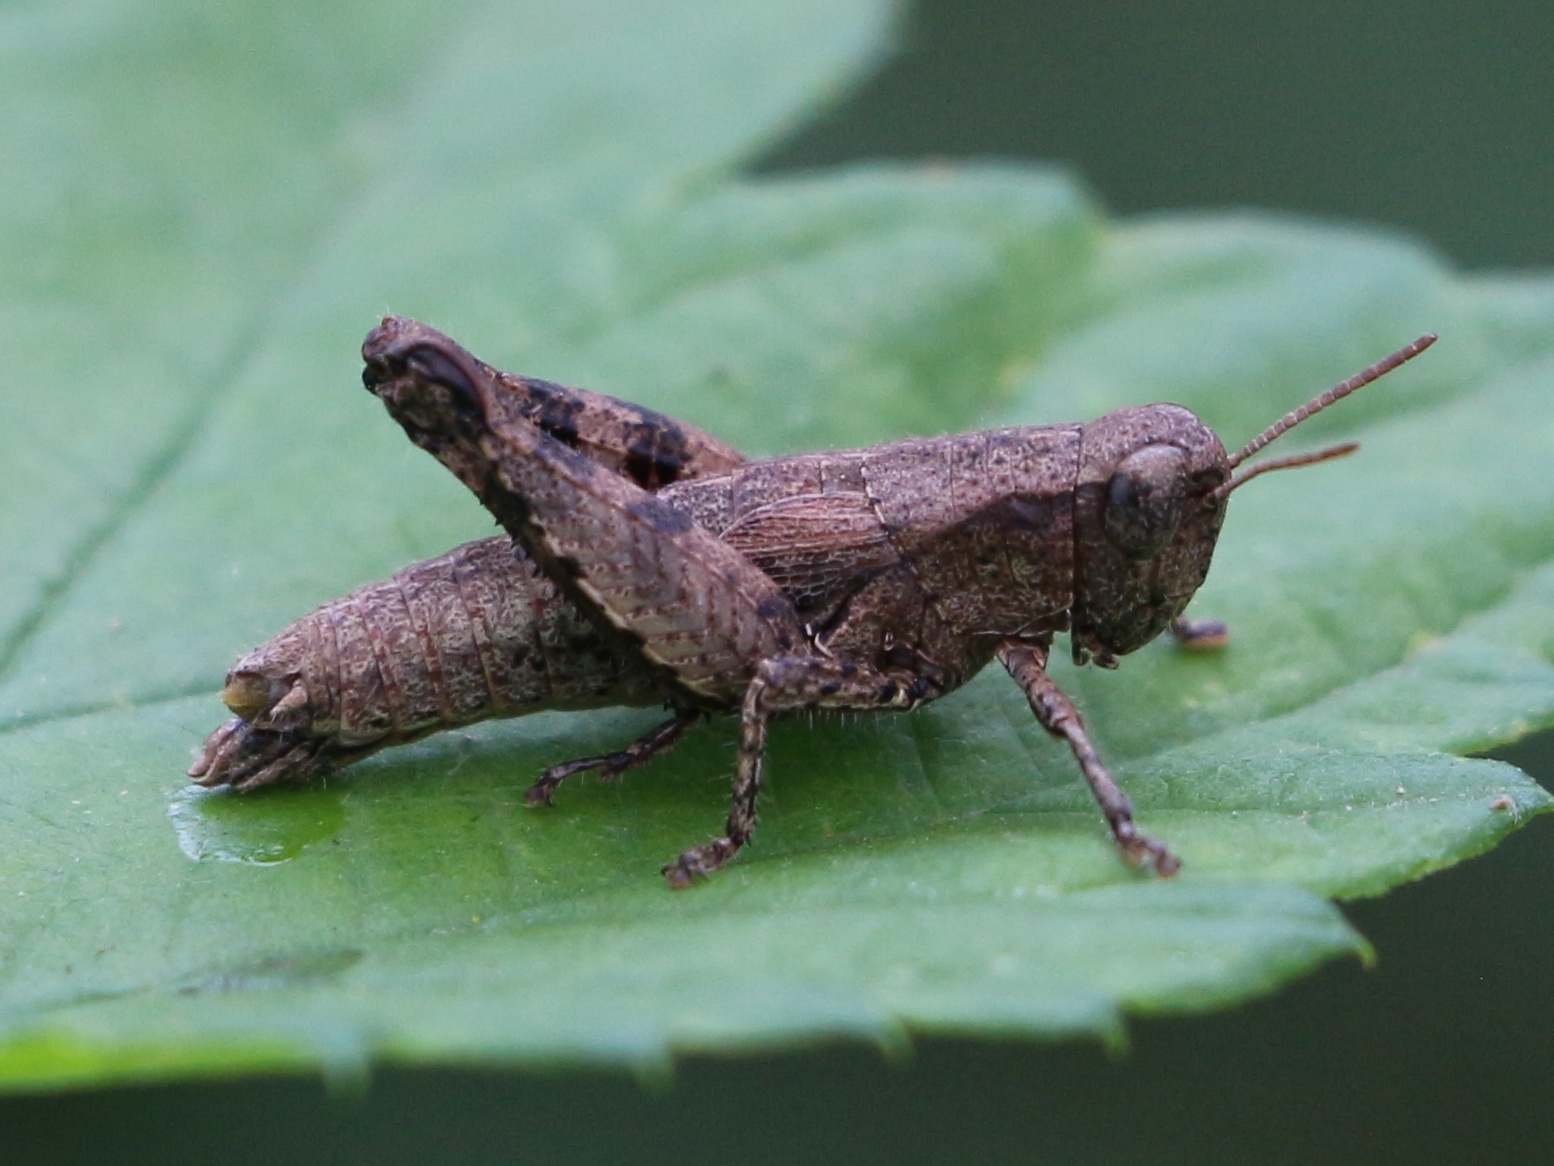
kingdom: Animalia
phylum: Arthropoda
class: Insecta
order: Orthoptera
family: Acrididae
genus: Pezotettix
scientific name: Pezotettix giornae
